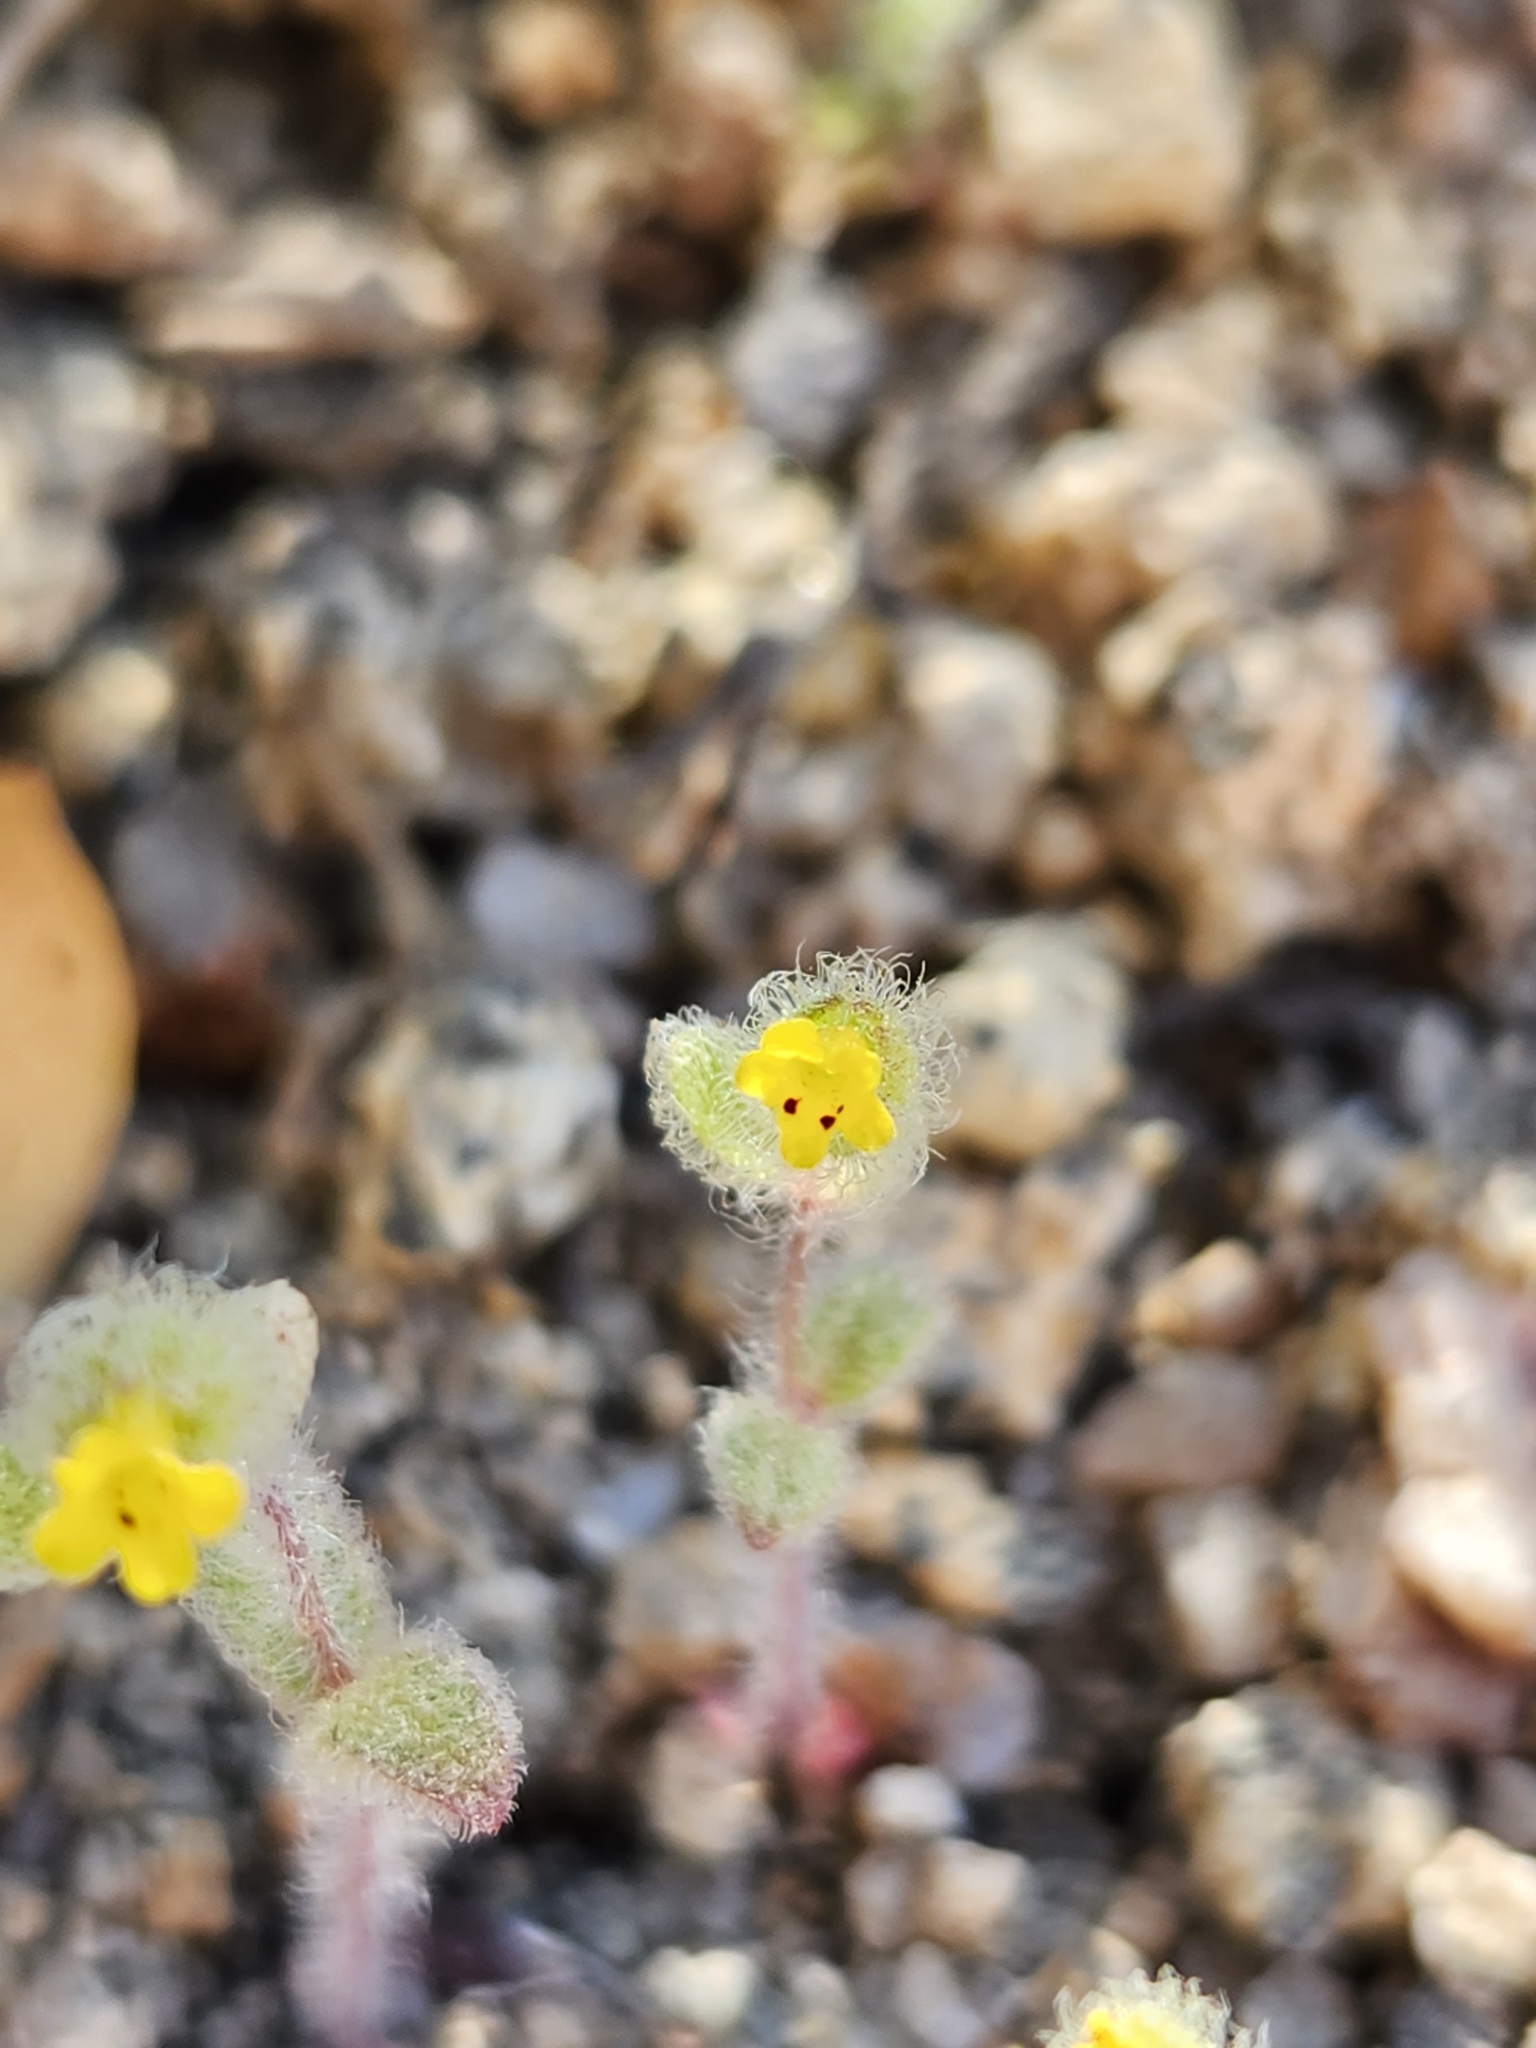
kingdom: Plantae
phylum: Tracheophyta
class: Magnoliopsida
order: Lamiales
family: Phrymaceae
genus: Mimetanthe
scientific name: Mimetanthe pilosa
